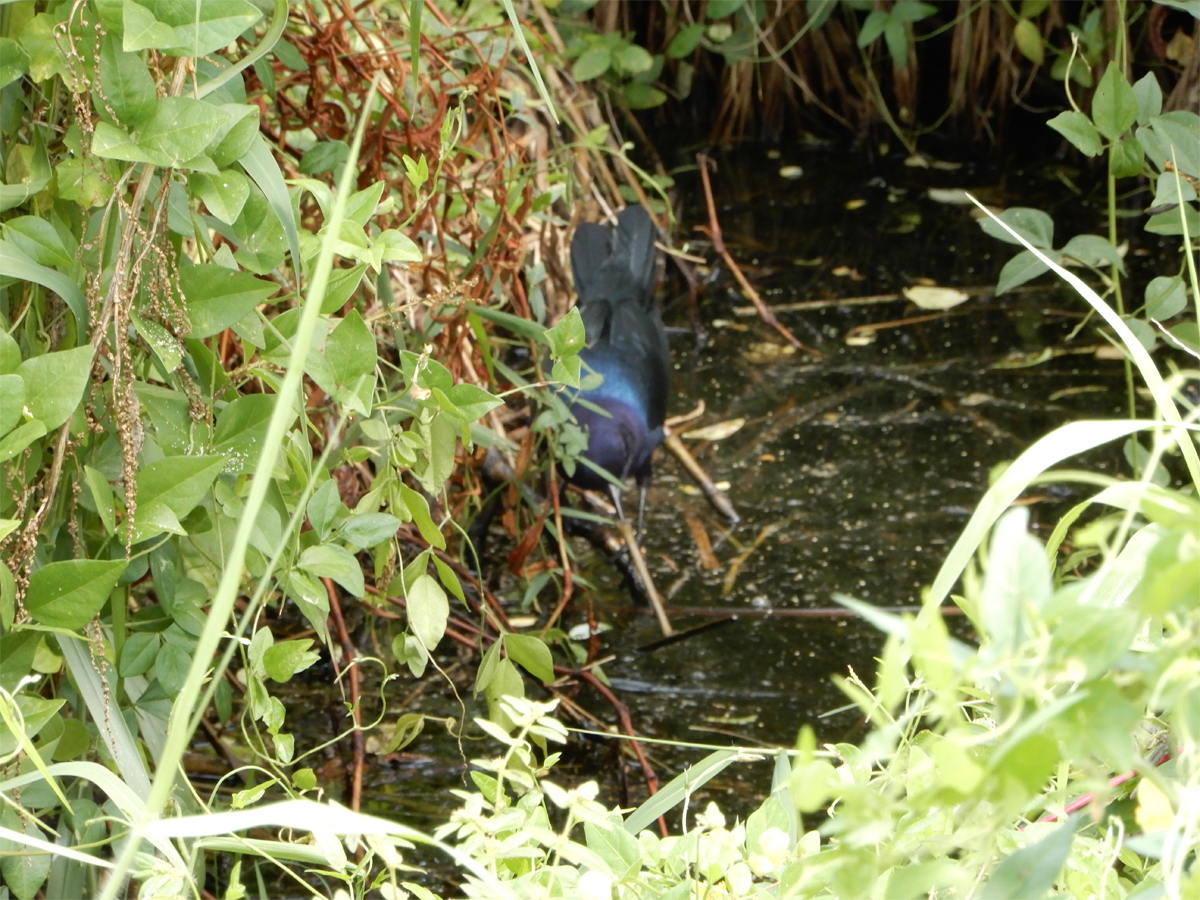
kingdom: Animalia
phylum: Chordata
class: Aves
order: Passeriformes
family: Icteridae
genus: Quiscalus
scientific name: Quiscalus major
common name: Boat-tailed grackle
